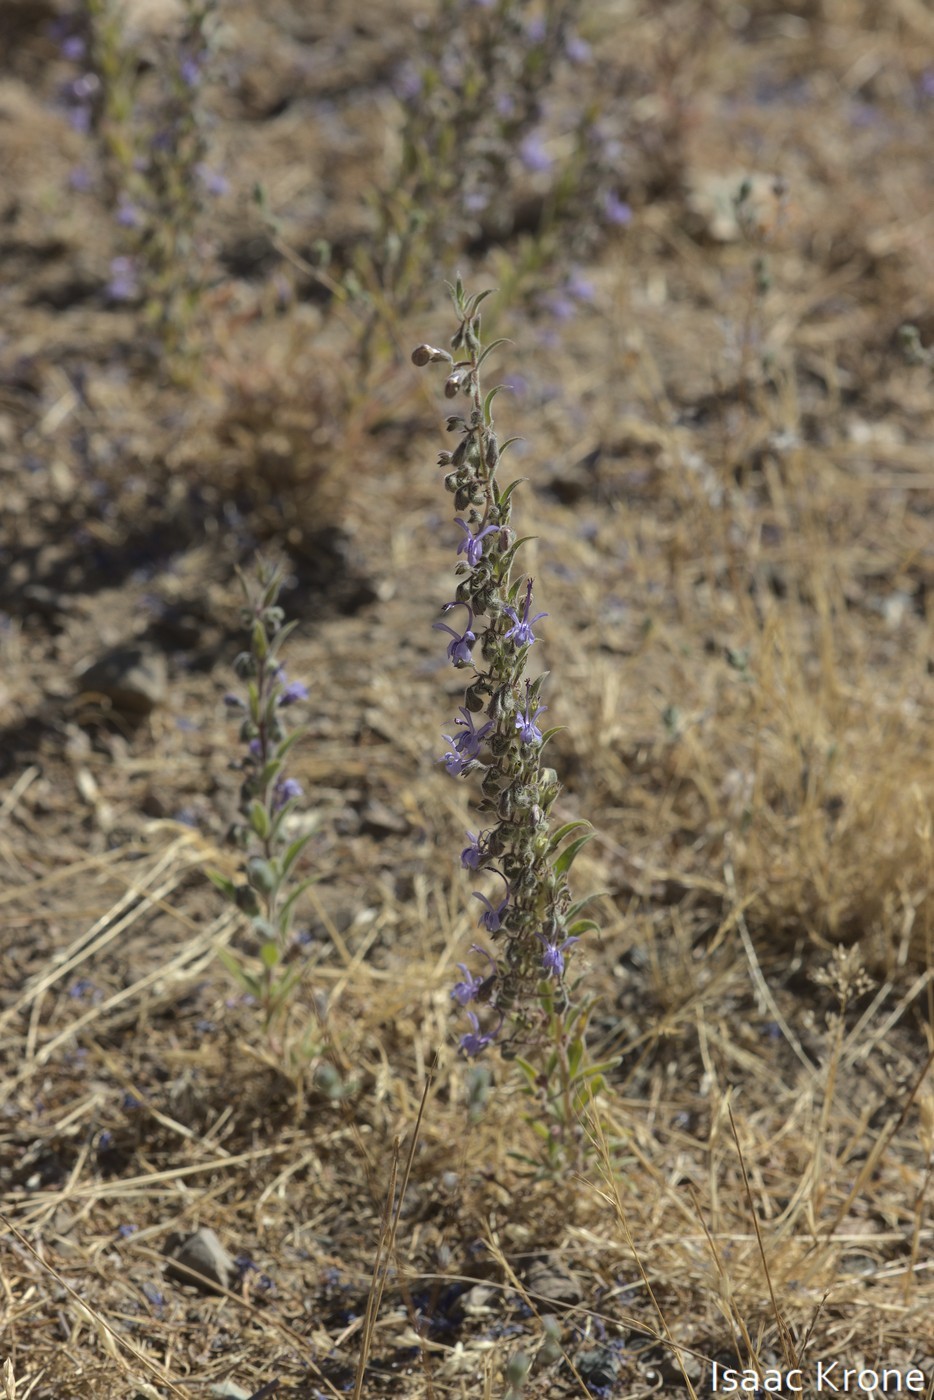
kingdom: Plantae
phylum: Tracheophyta
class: Magnoliopsida
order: Lamiales
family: Lamiaceae
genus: Trichostema
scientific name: Trichostema lanceolatum
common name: Vinegar-weed
